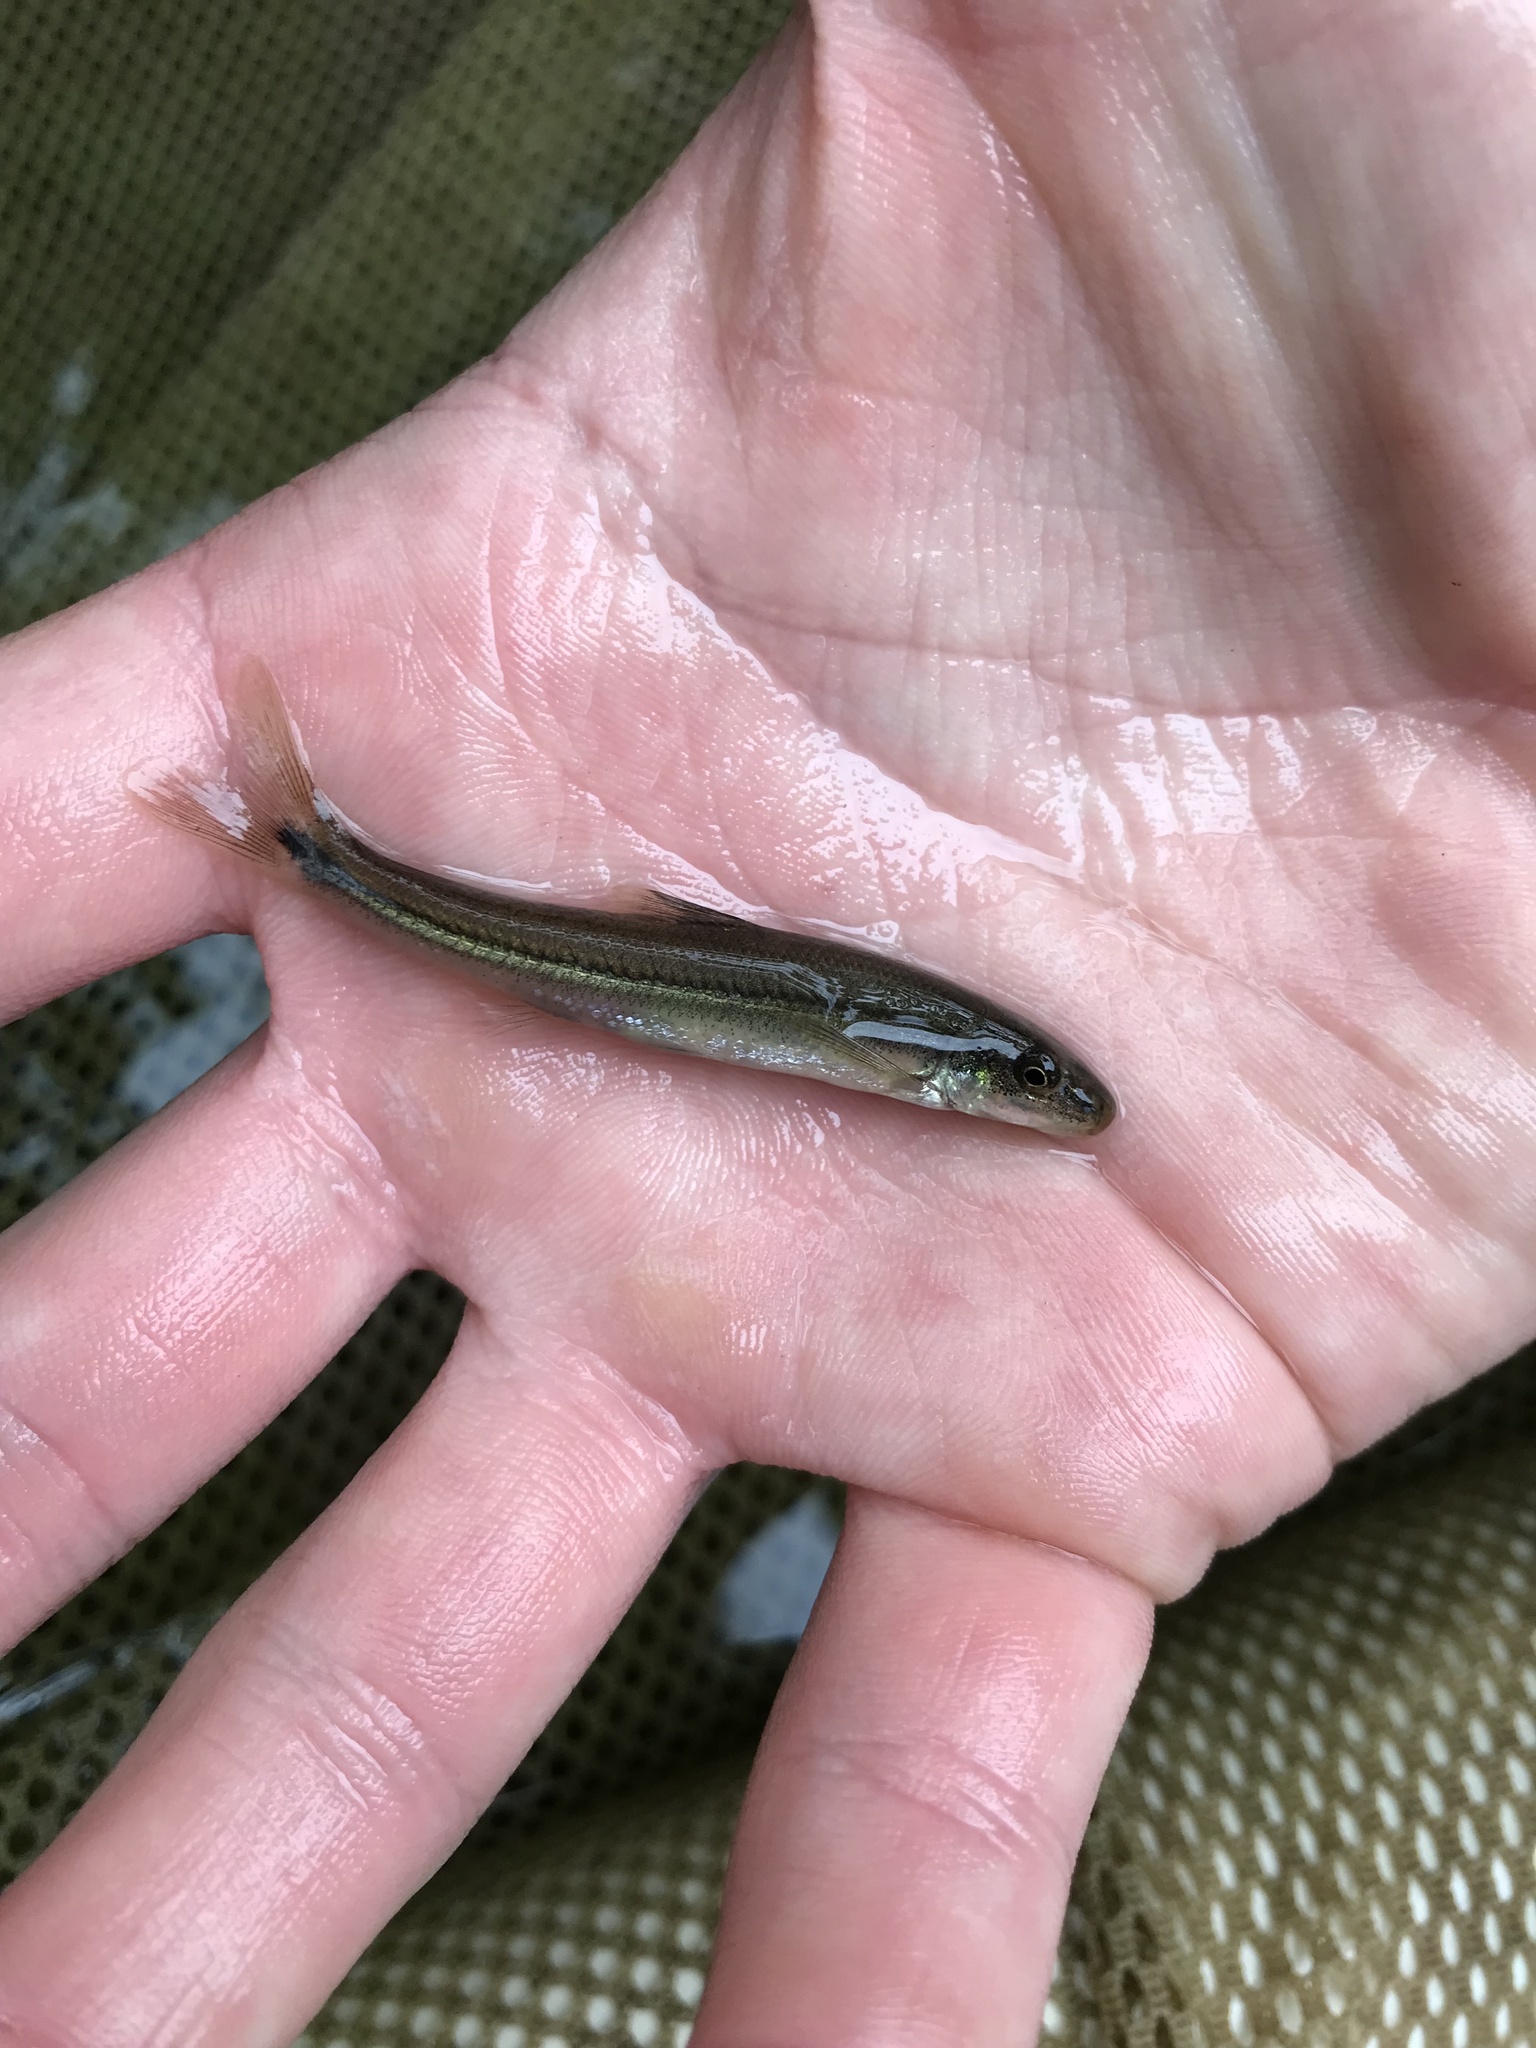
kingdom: Animalia
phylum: Chordata
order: Cypriniformes
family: Cyprinidae
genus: Phenacobius
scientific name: Phenacobius crassilabrum
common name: Fatlips minnow
